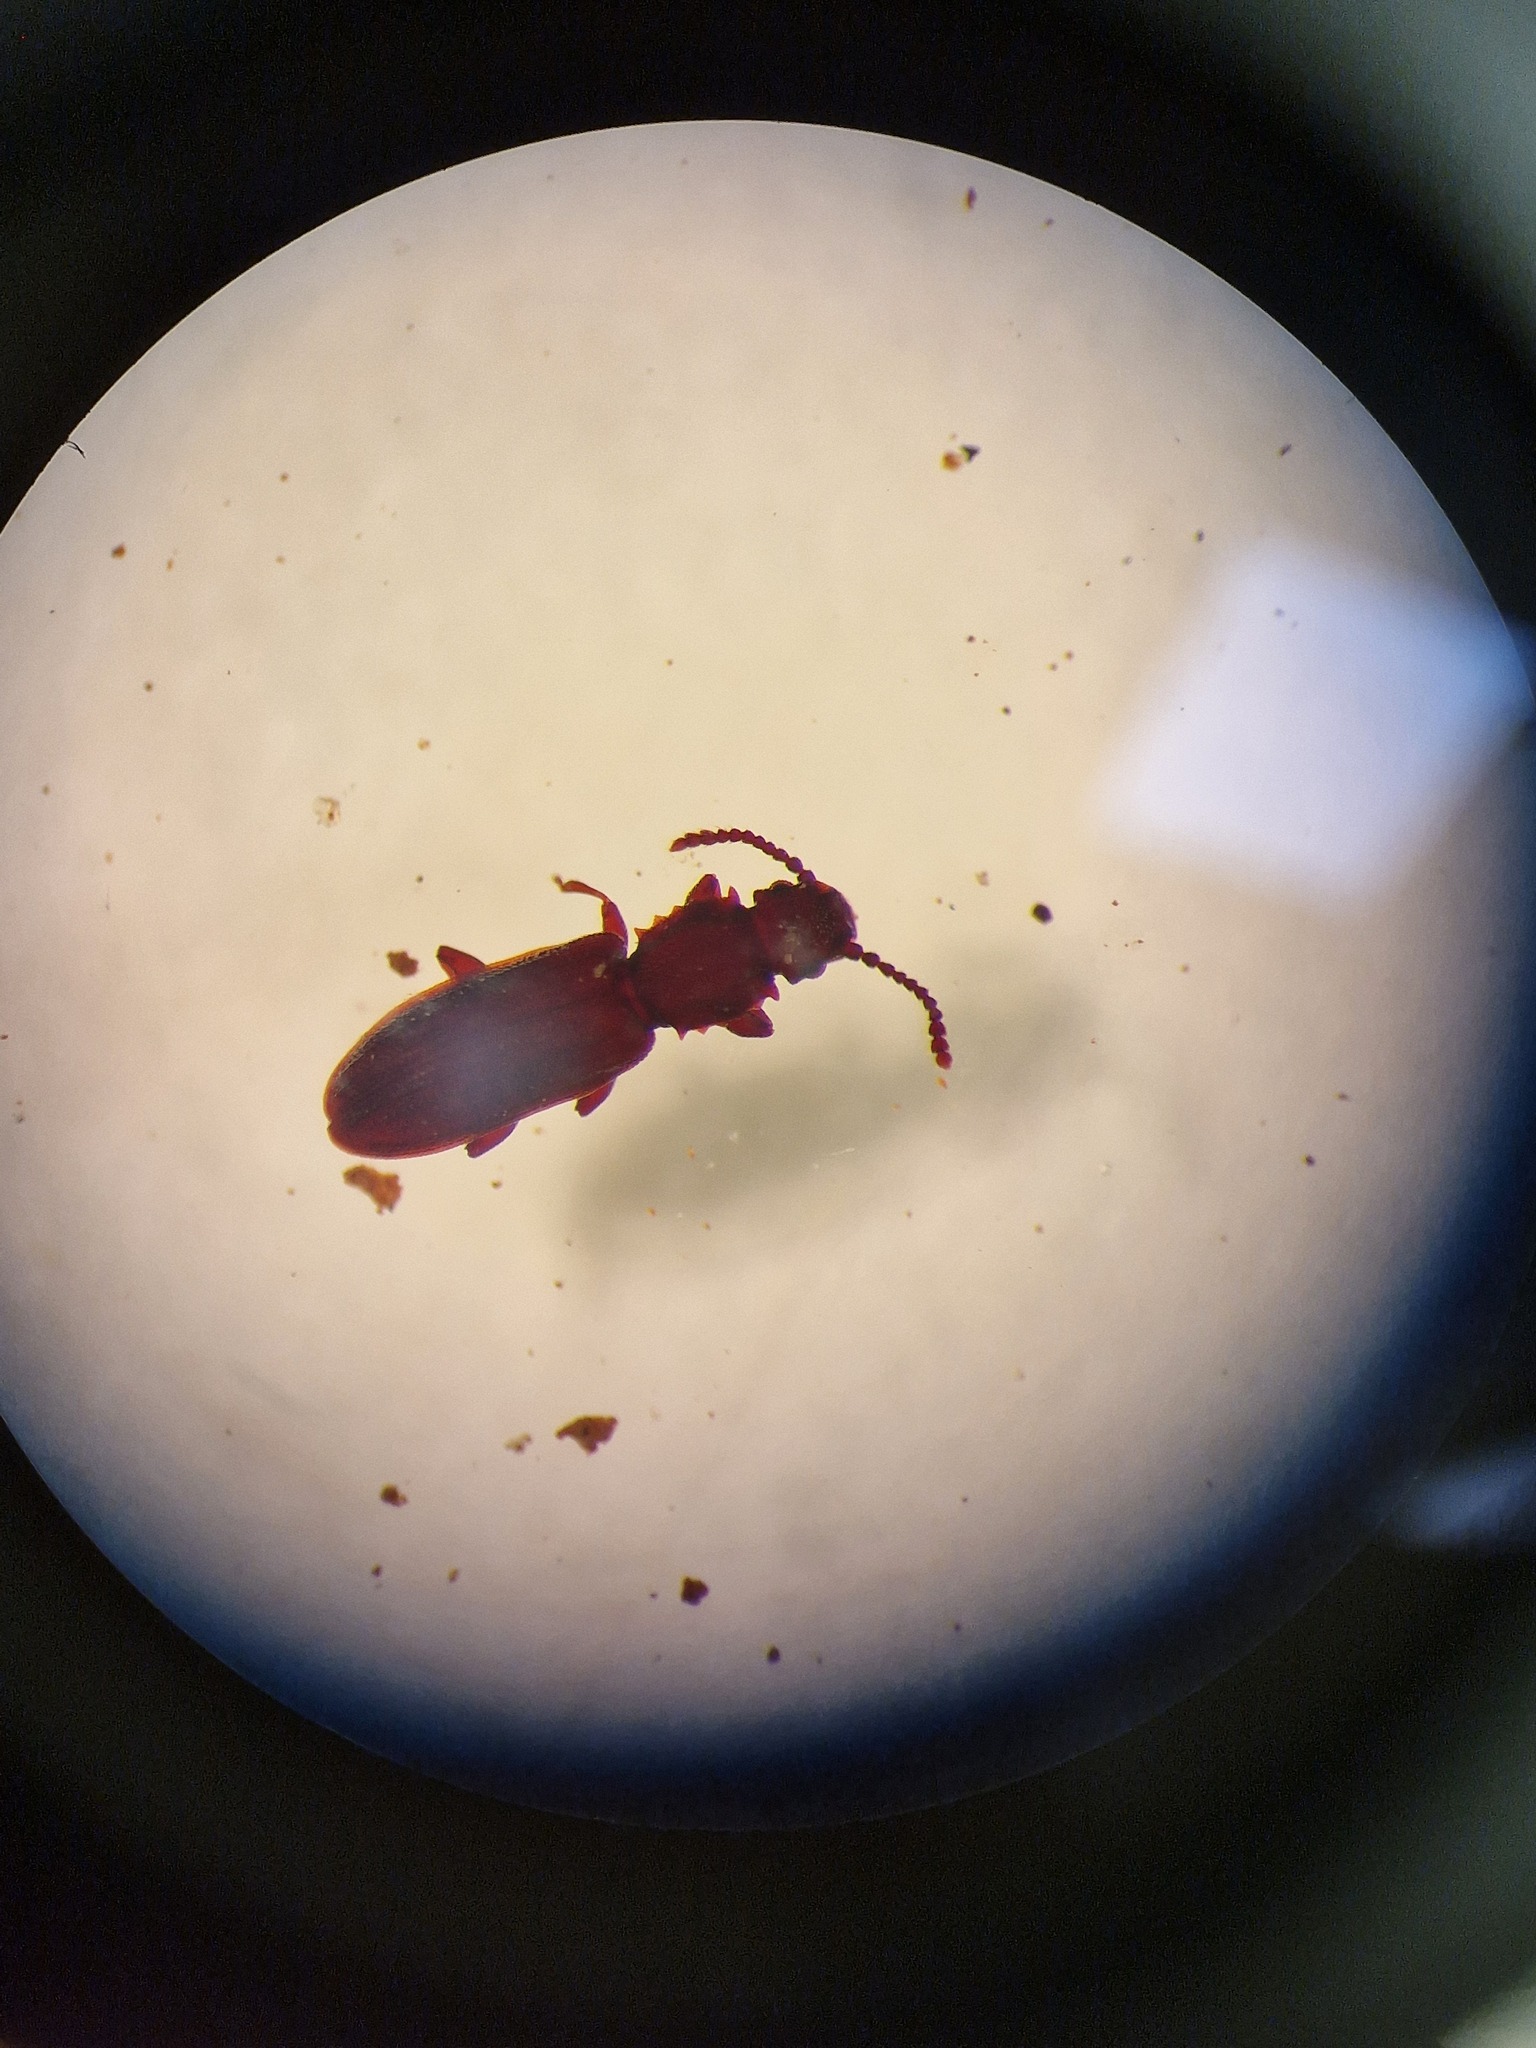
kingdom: Animalia
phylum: Arthropoda
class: Insecta
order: Coleoptera
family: Silvanidae
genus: Oryzaephilus
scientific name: Oryzaephilus surinamensis
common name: Sawtoothed grain beetle
